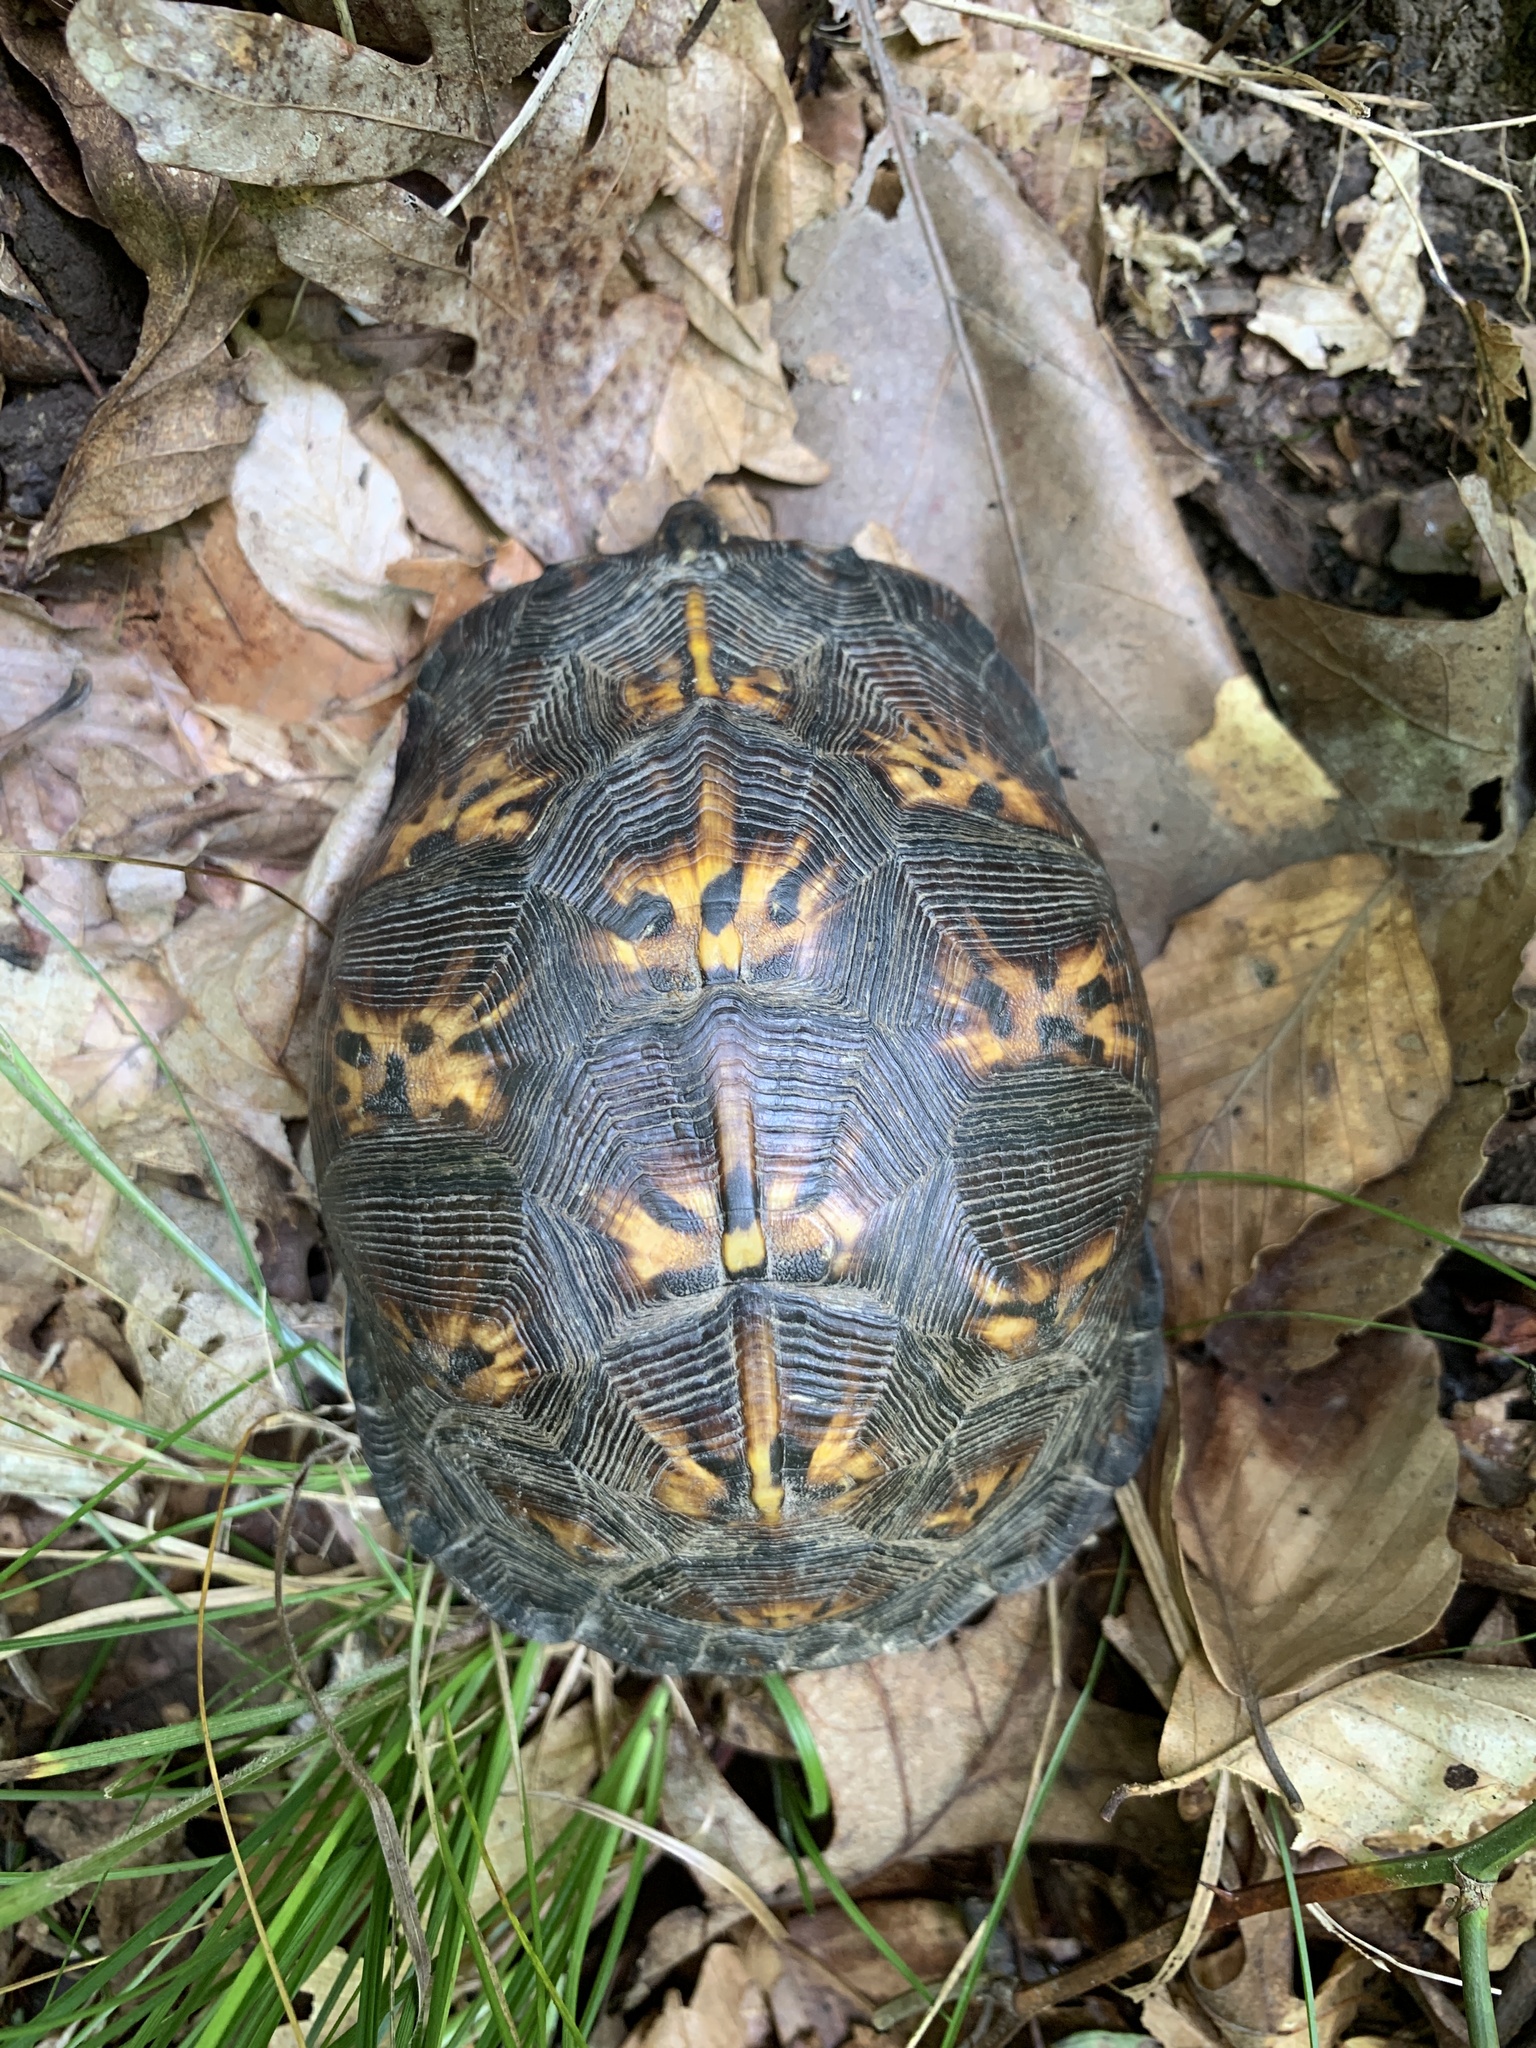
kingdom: Animalia
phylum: Chordata
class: Testudines
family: Emydidae
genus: Terrapene
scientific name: Terrapene carolina
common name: Common box turtle
